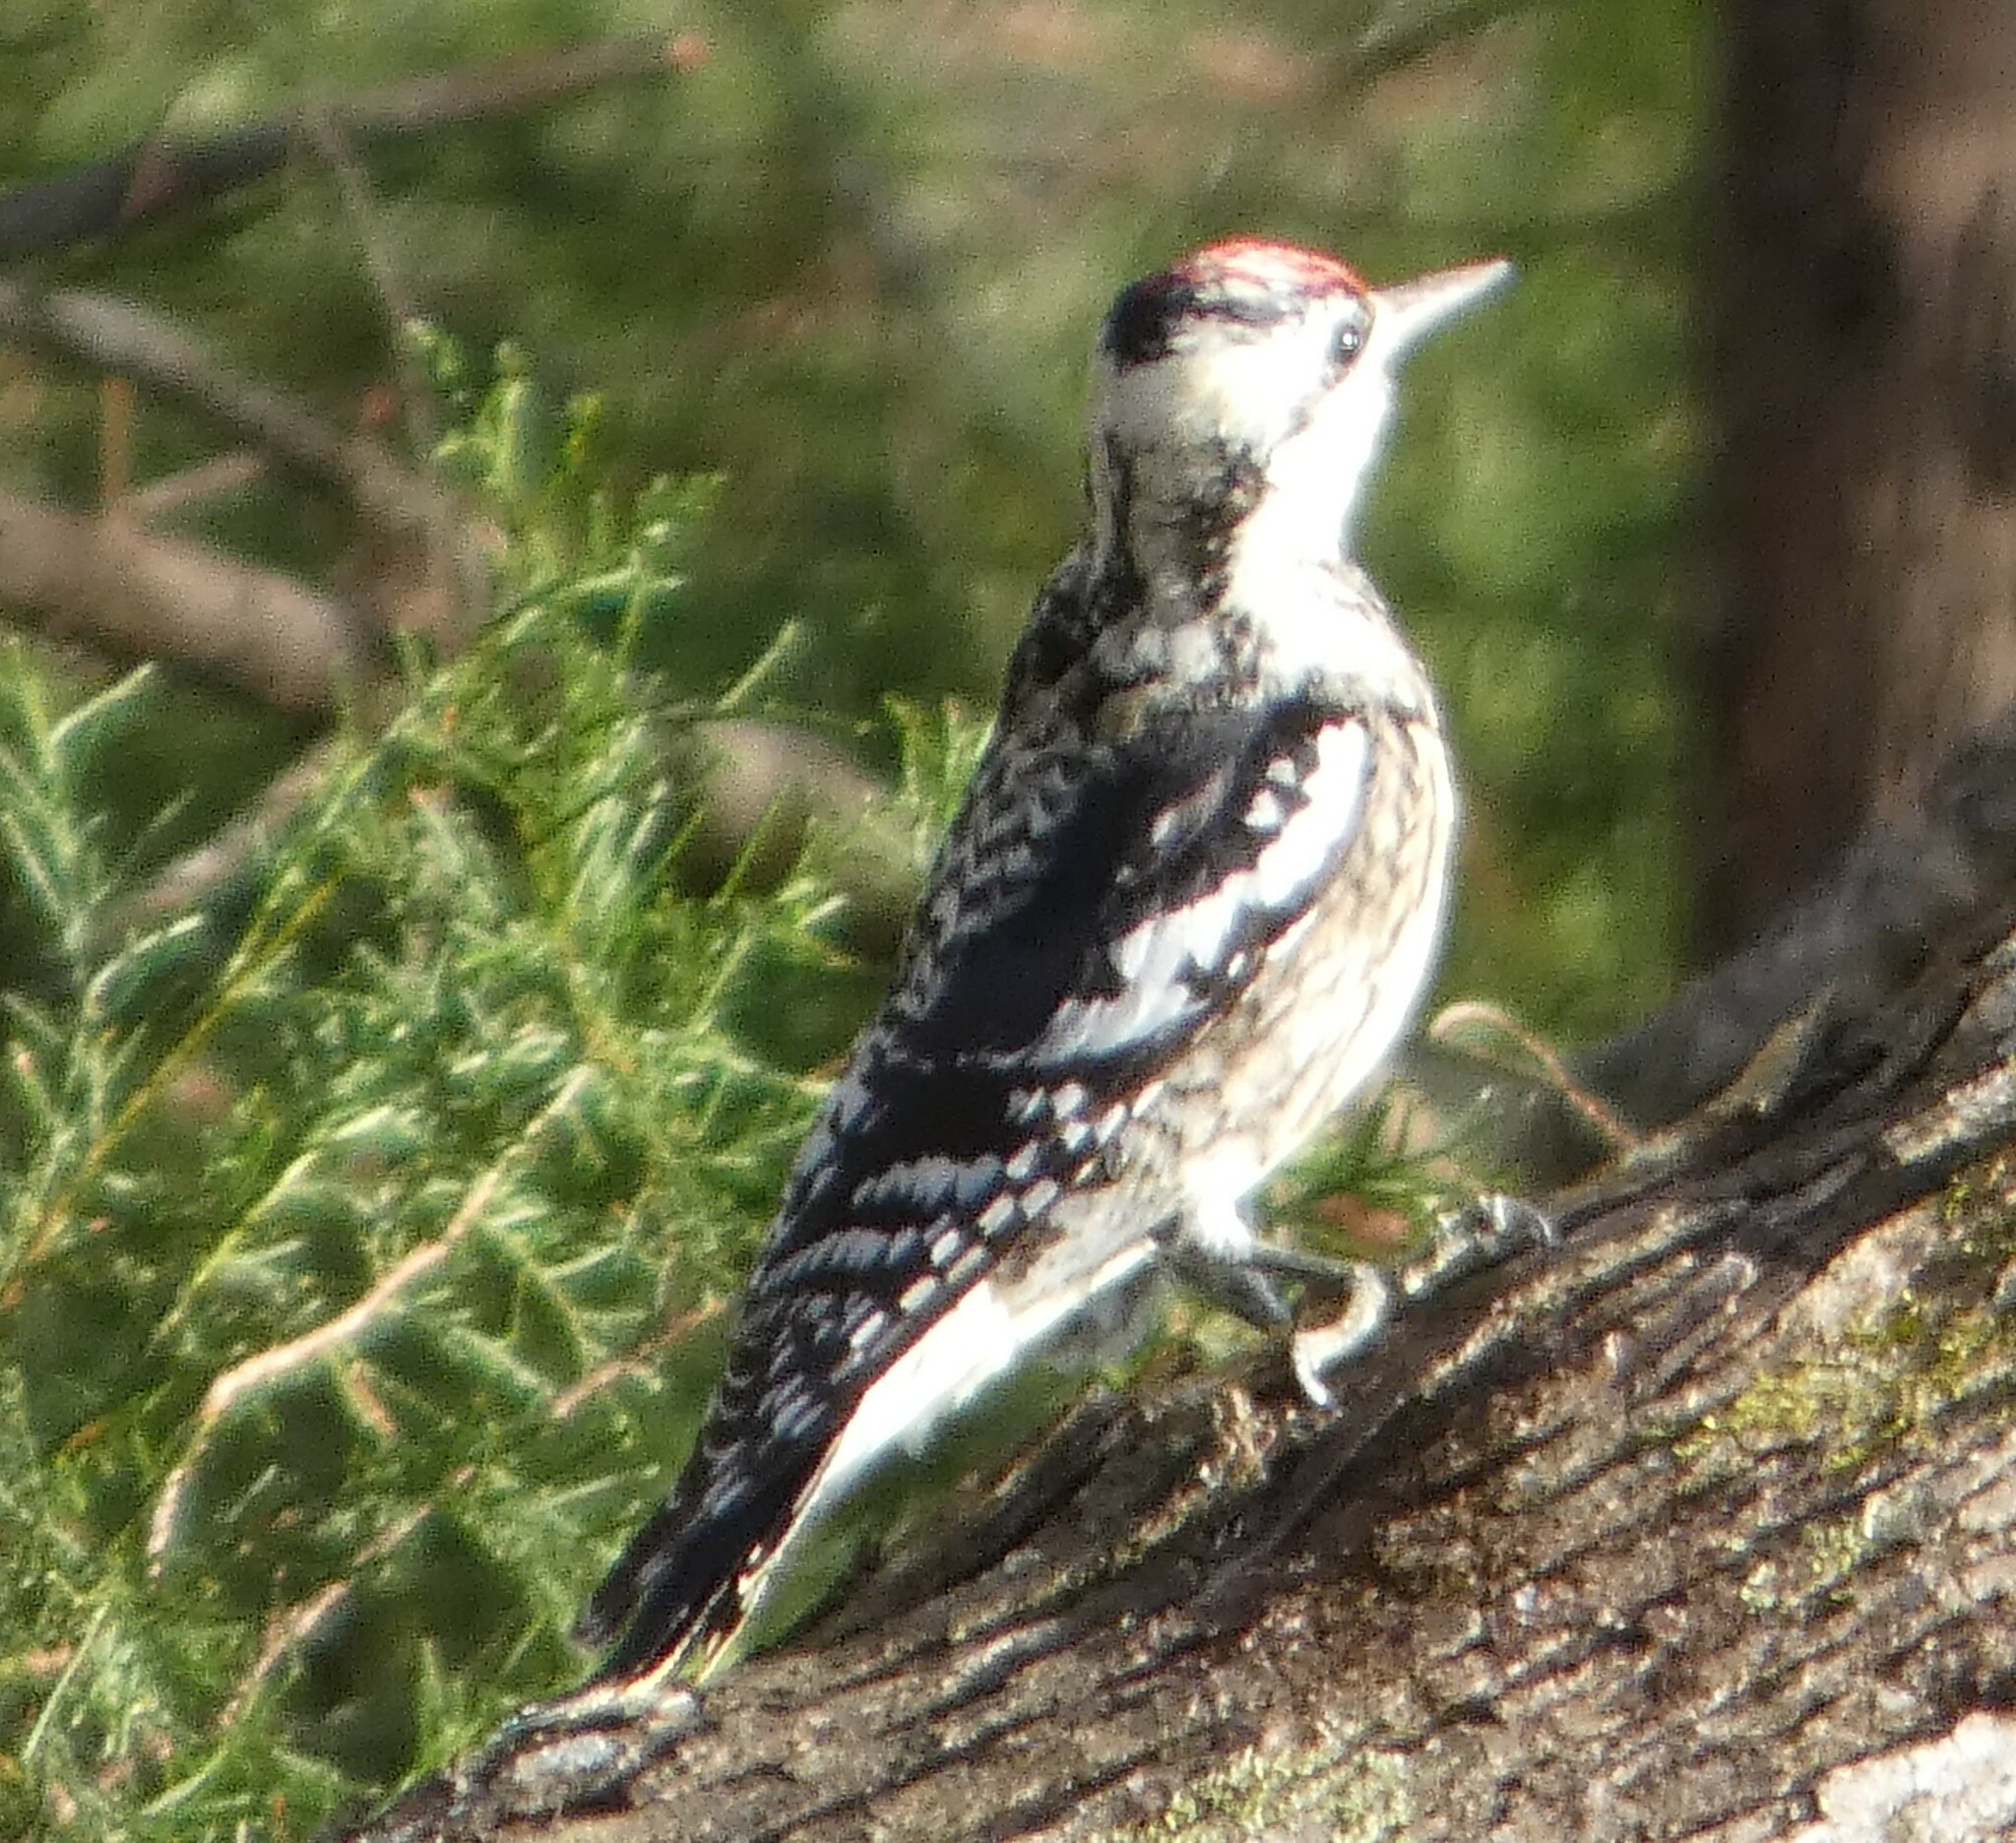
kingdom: Animalia
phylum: Chordata
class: Aves
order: Piciformes
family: Picidae
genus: Sphyrapicus
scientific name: Sphyrapicus varius
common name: Yellow-bellied sapsucker
